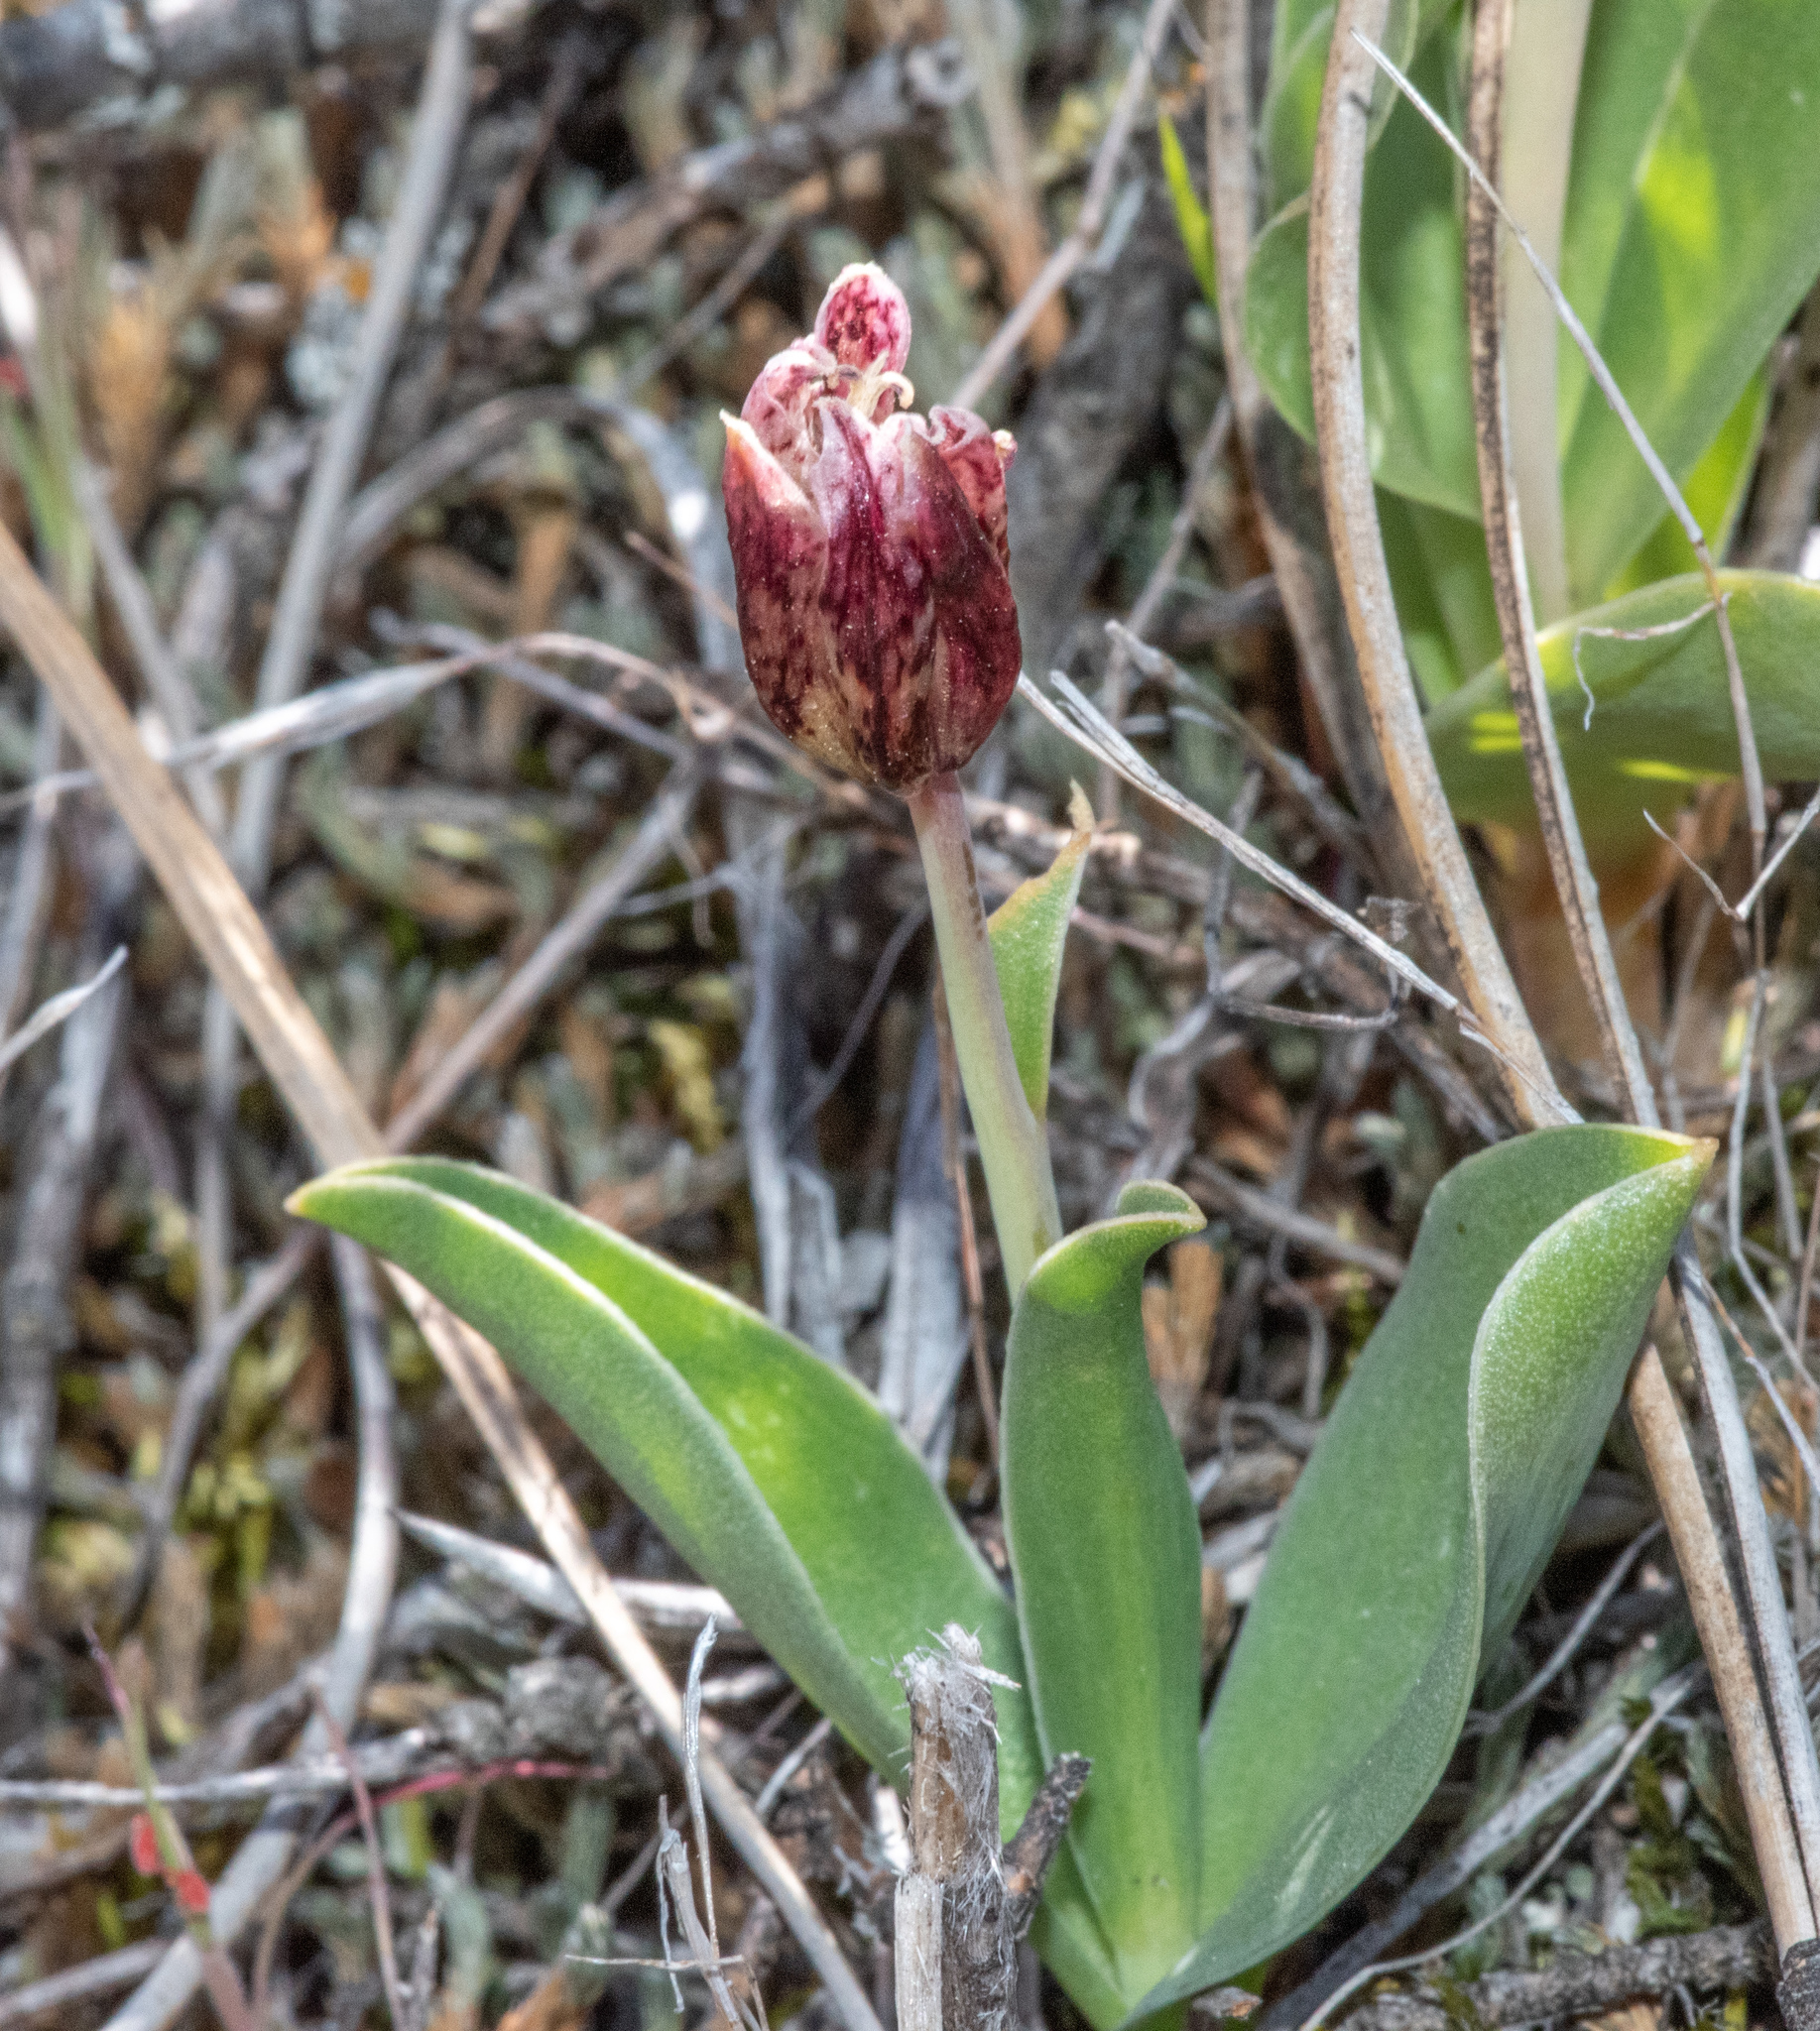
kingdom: Plantae
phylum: Tracheophyta
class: Liliopsida
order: Liliales
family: Liliaceae
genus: Fritillaria
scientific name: Fritillaria purdyi
